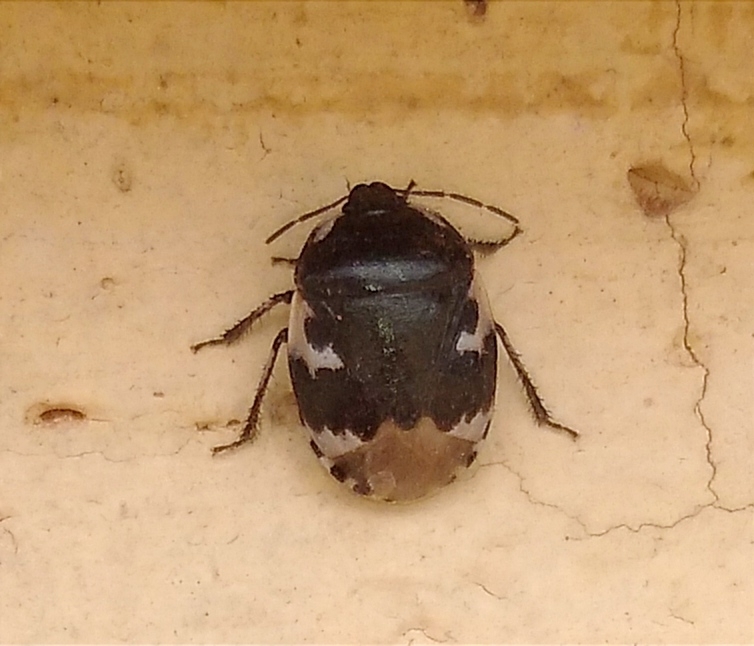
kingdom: Animalia
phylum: Arthropoda
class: Insecta
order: Hemiptera
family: Cydnidae
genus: Tritomegas
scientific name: Tritomegas bicolor
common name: Pied shieldbug
